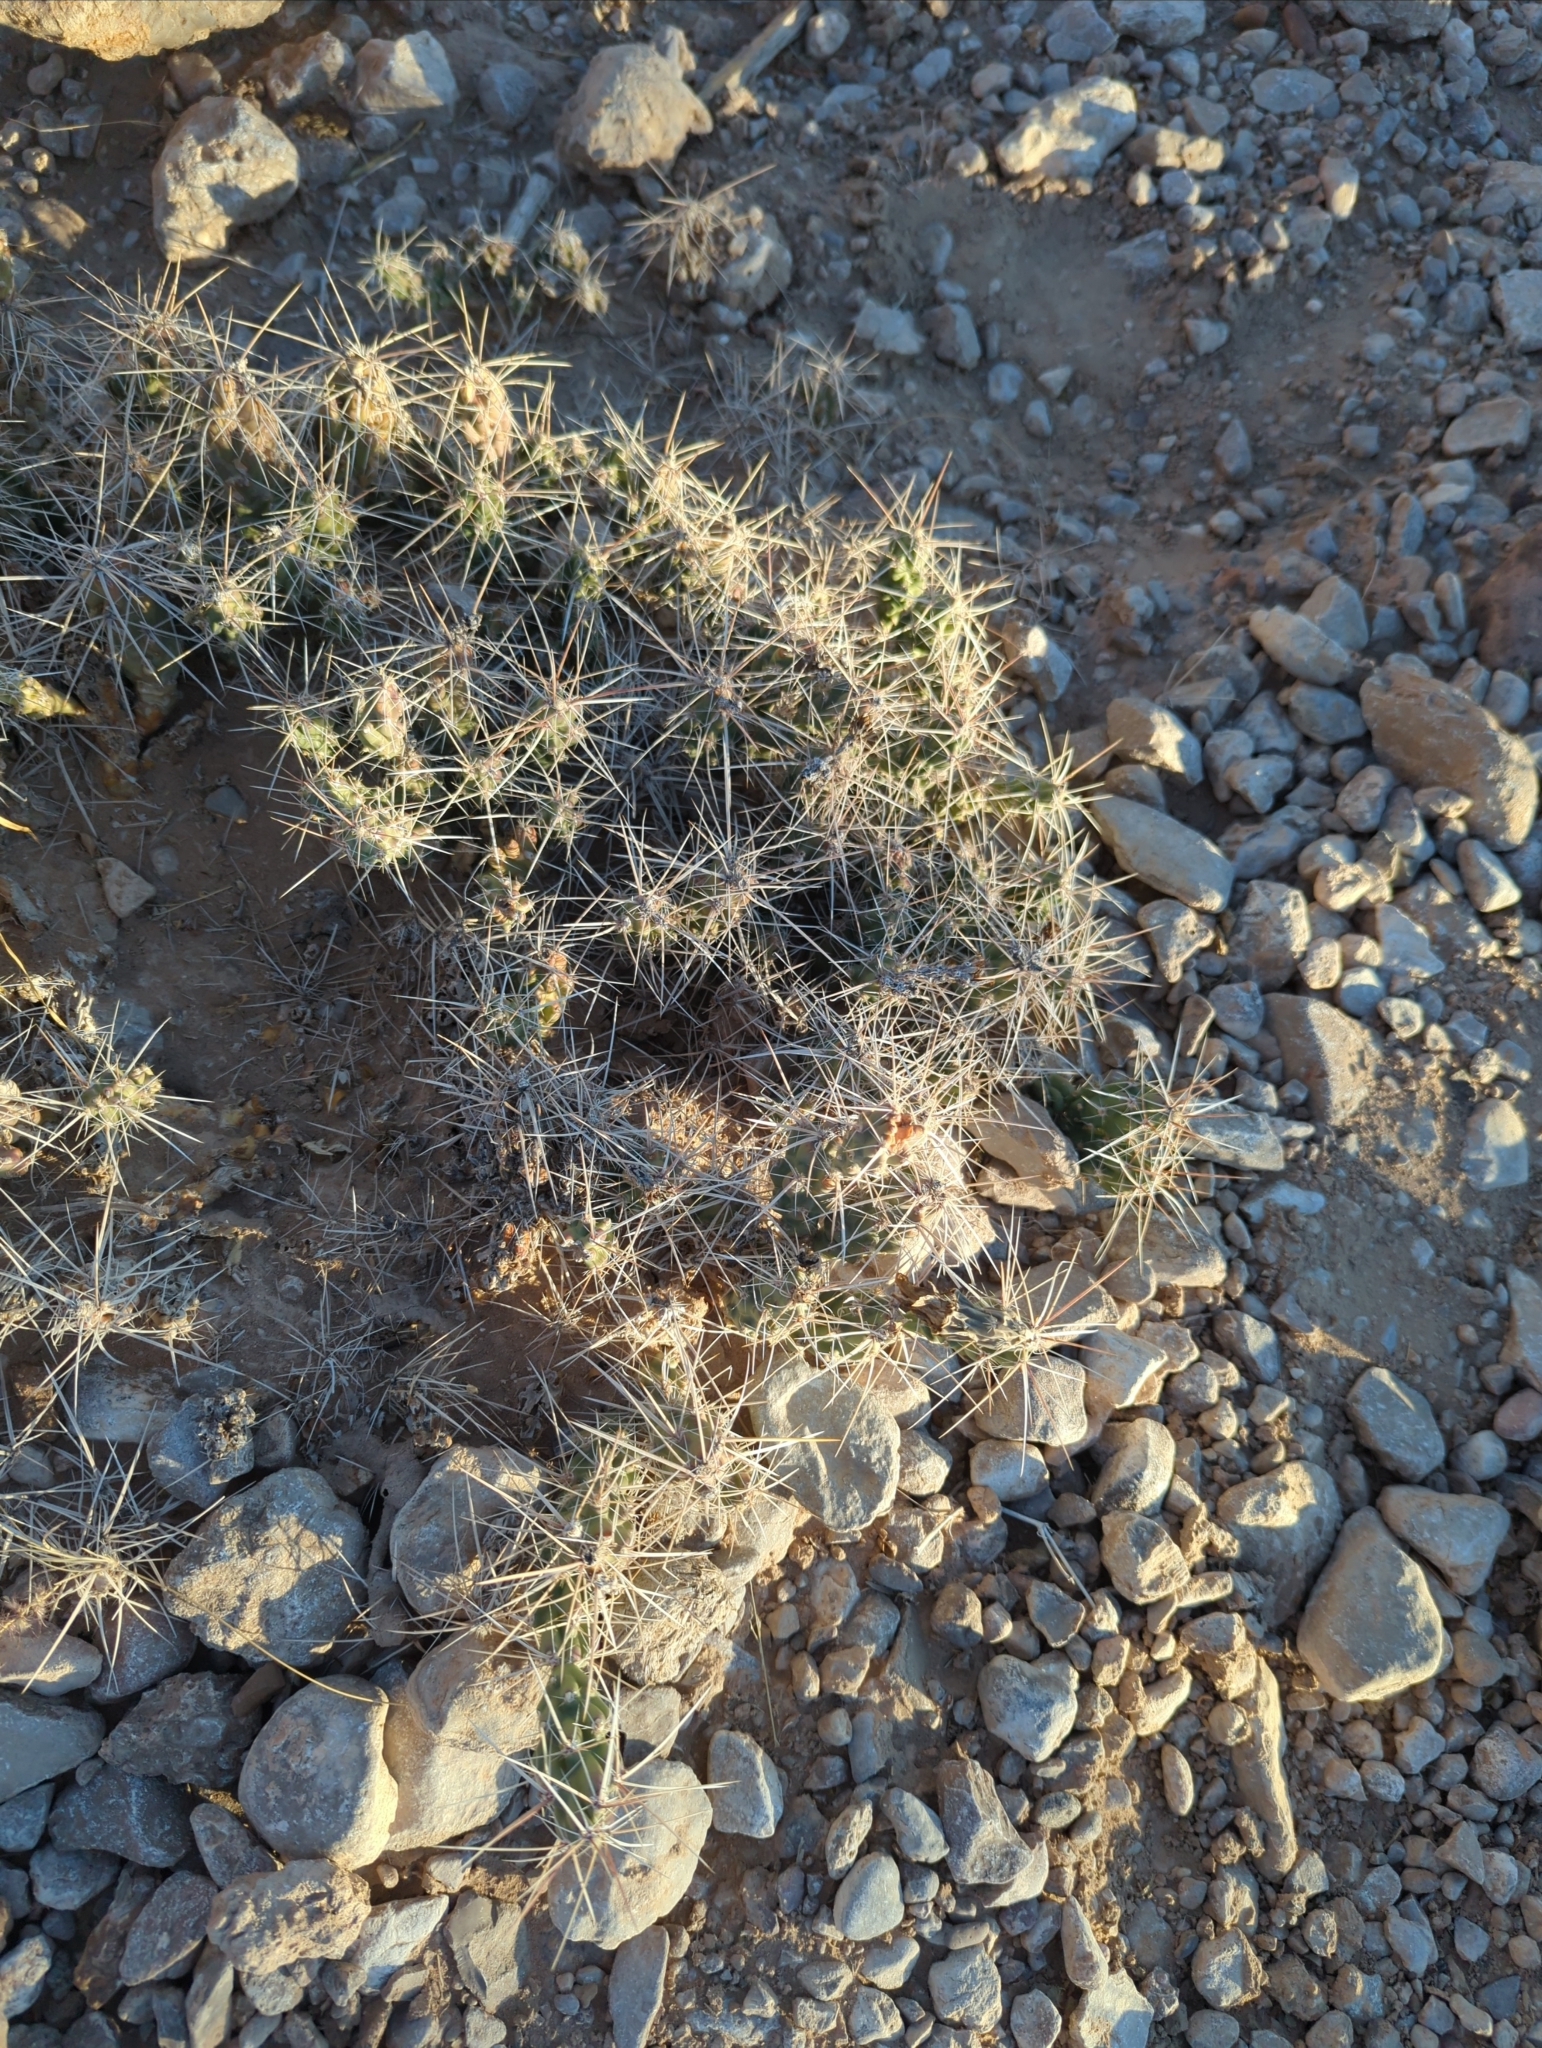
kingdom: Plantae
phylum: Tracheophyta
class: Magnoliopsida
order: Caryophyllales
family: Cactaceae
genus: Grusonia
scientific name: Grusonia aggeria
